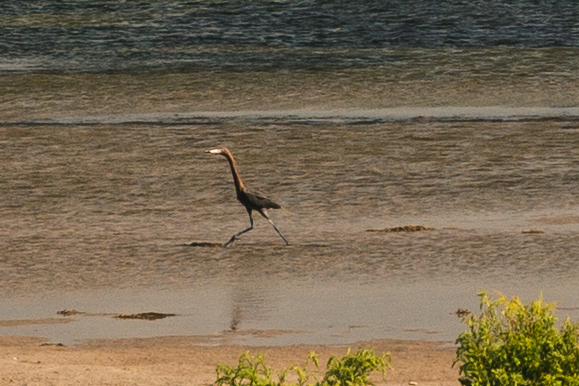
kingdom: Animalia
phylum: Chordata
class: Aves
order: Pelecaniformes
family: Ardeidae
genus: Egretta
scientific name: Egretta rufescens
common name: Reddish egret
